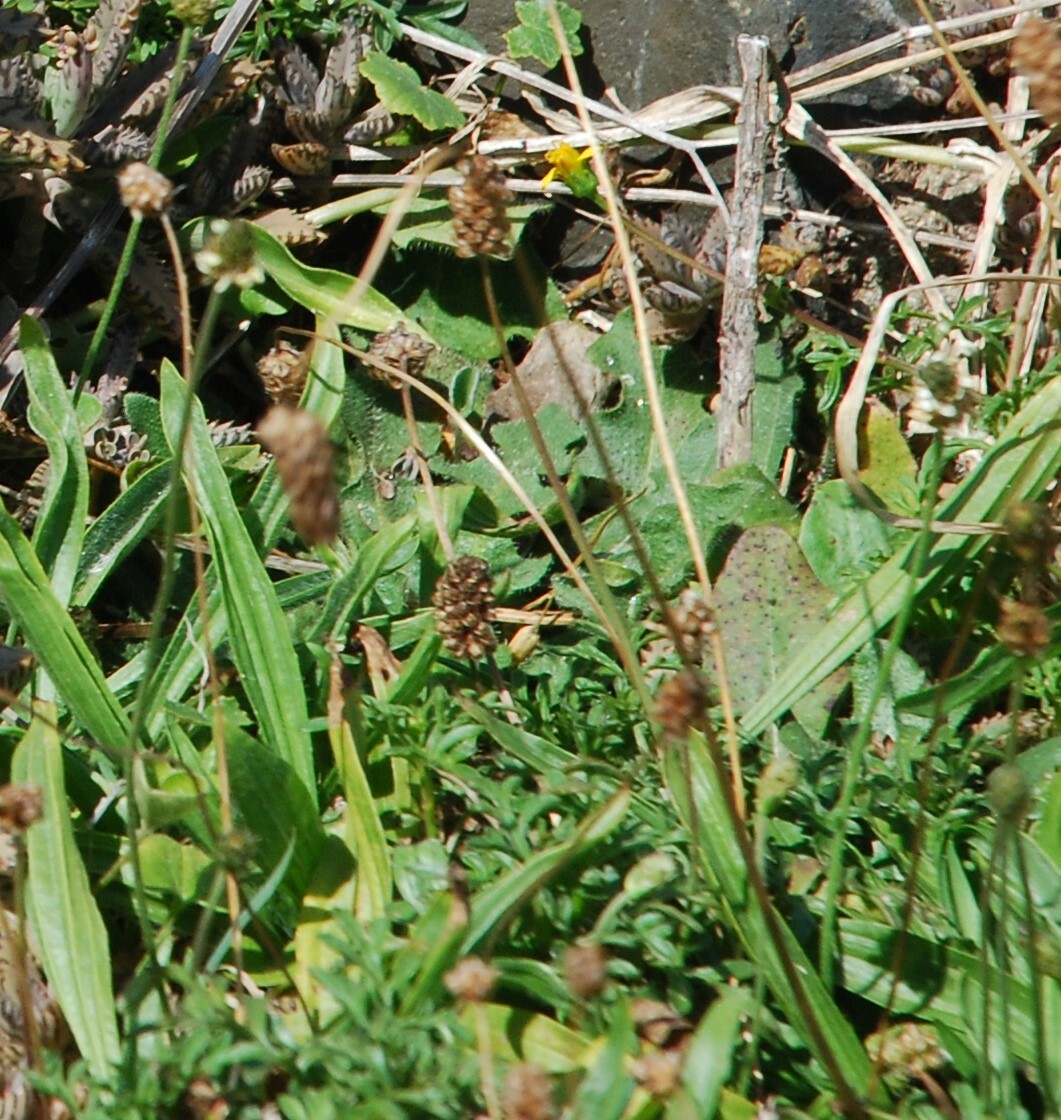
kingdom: Plantae
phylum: Tracheophyta
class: Magnoliopsida
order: Lamiales
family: Plantaginaceae
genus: Plantago
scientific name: Plantago lanceolata
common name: Ribwort plantain
